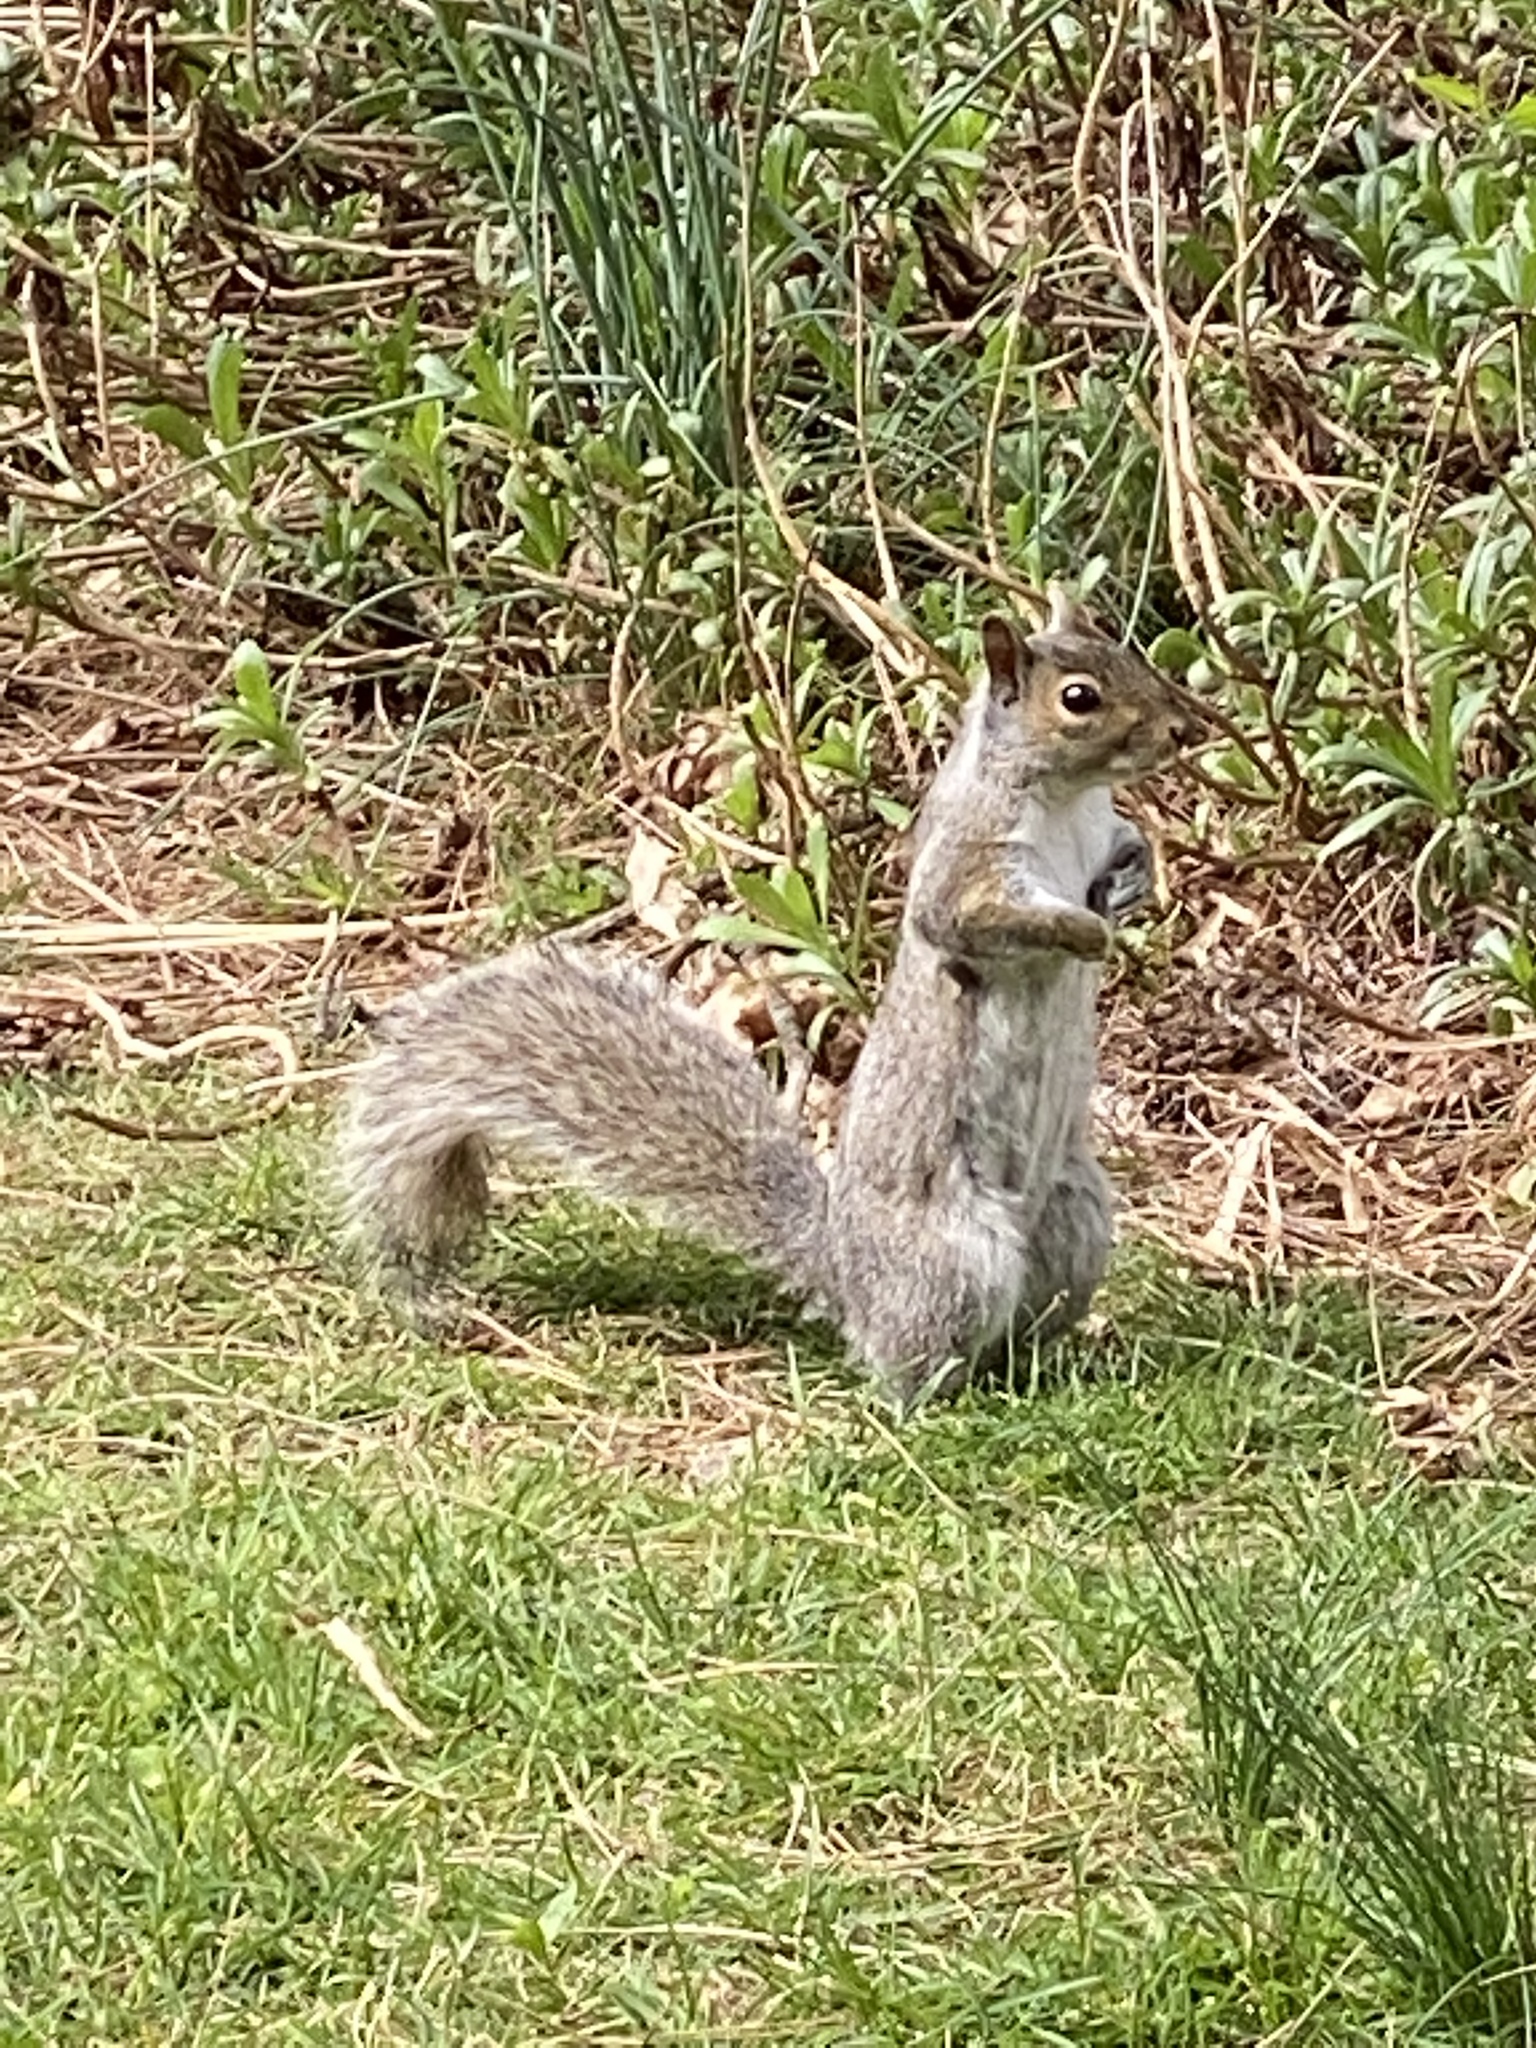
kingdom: Animalia
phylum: Chordata
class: Mammalia
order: Rodentia
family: Sciuridae
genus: Sciurus
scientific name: Sciurus carolinensis
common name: Eastern gray squirrel
